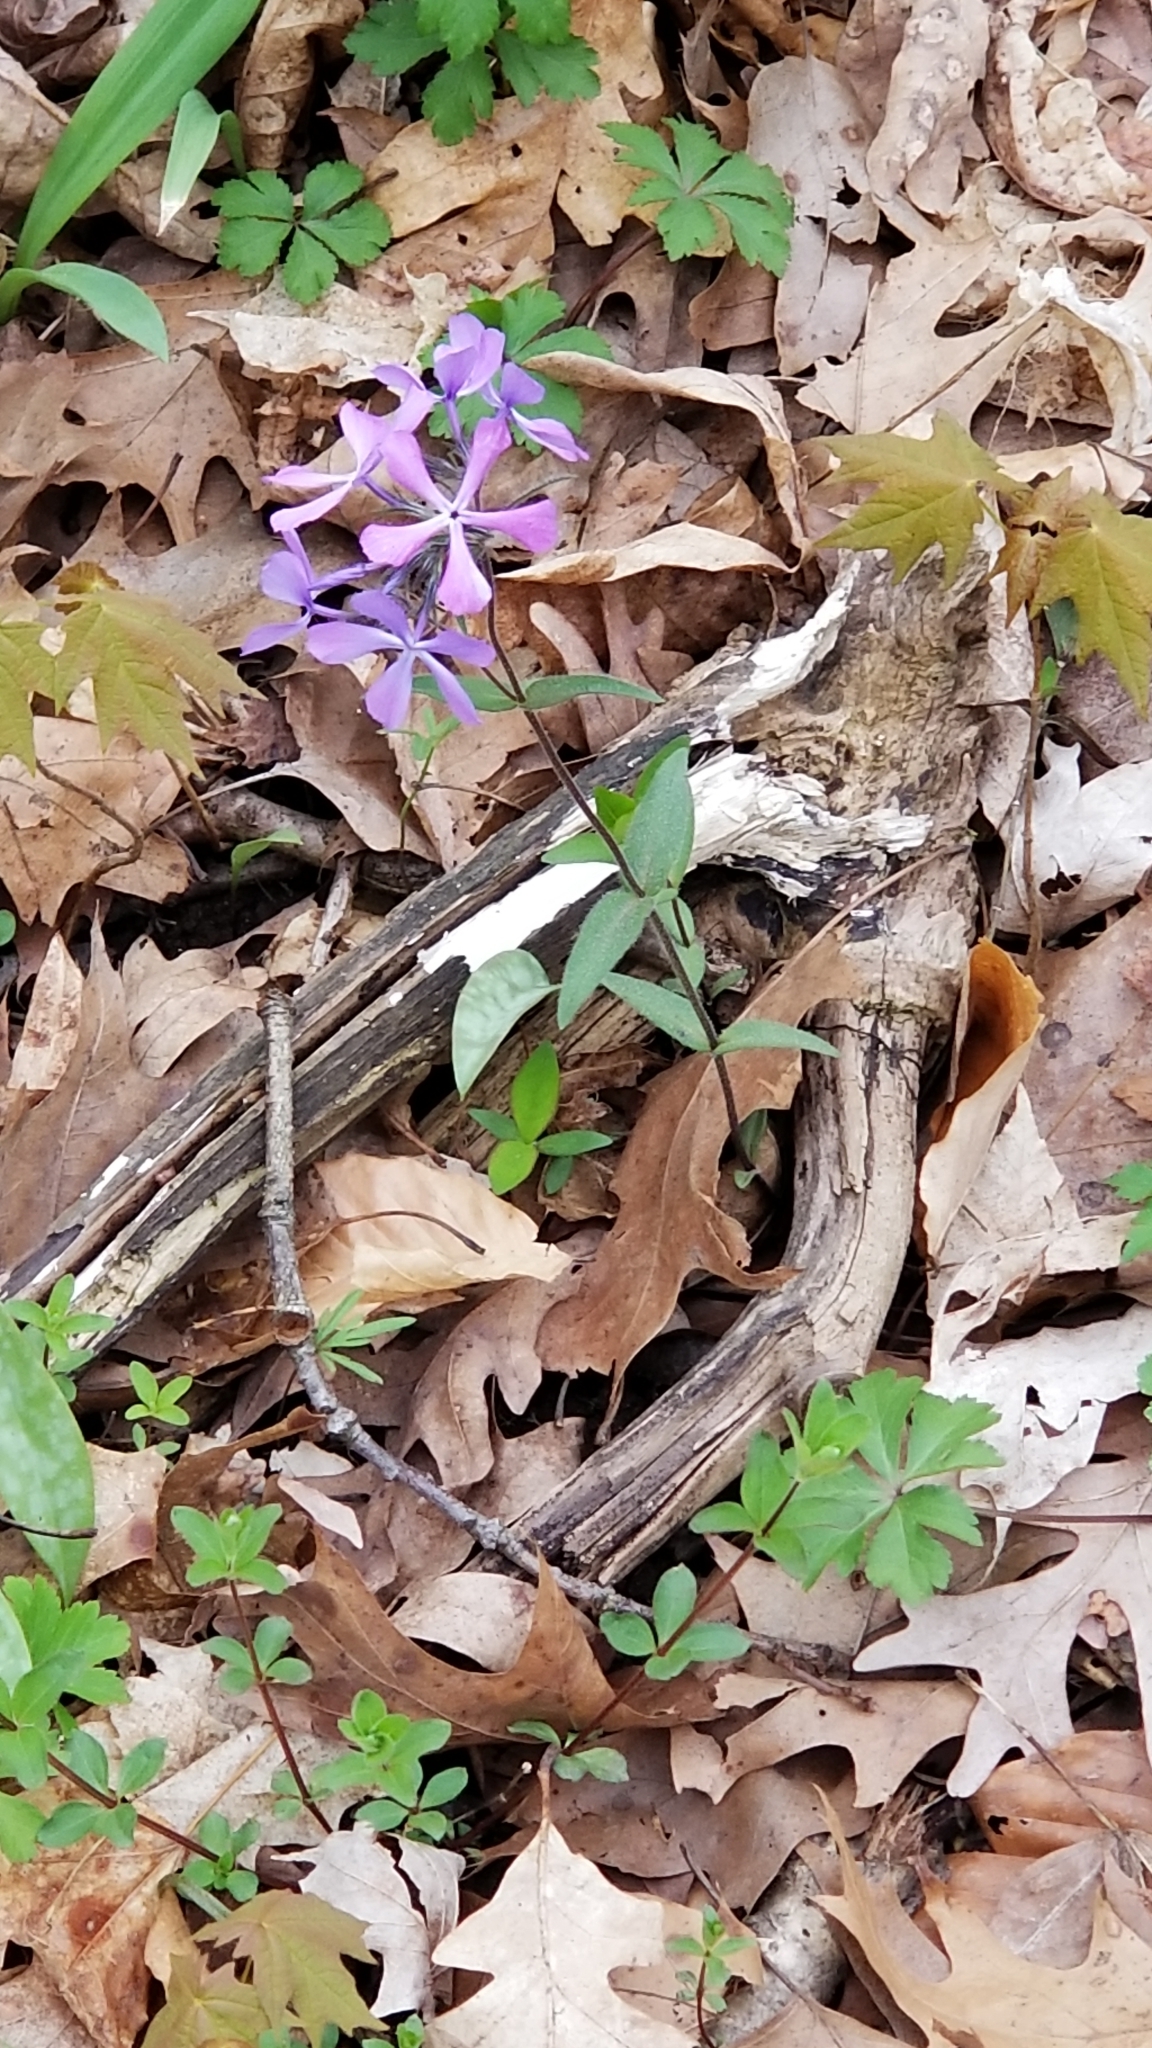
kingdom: Plantae
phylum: Tracheophyta
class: Magnoliopsida
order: Ericales
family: Polemoniaceae
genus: Phlox
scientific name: Phlox divaricata
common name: Blue phlox
